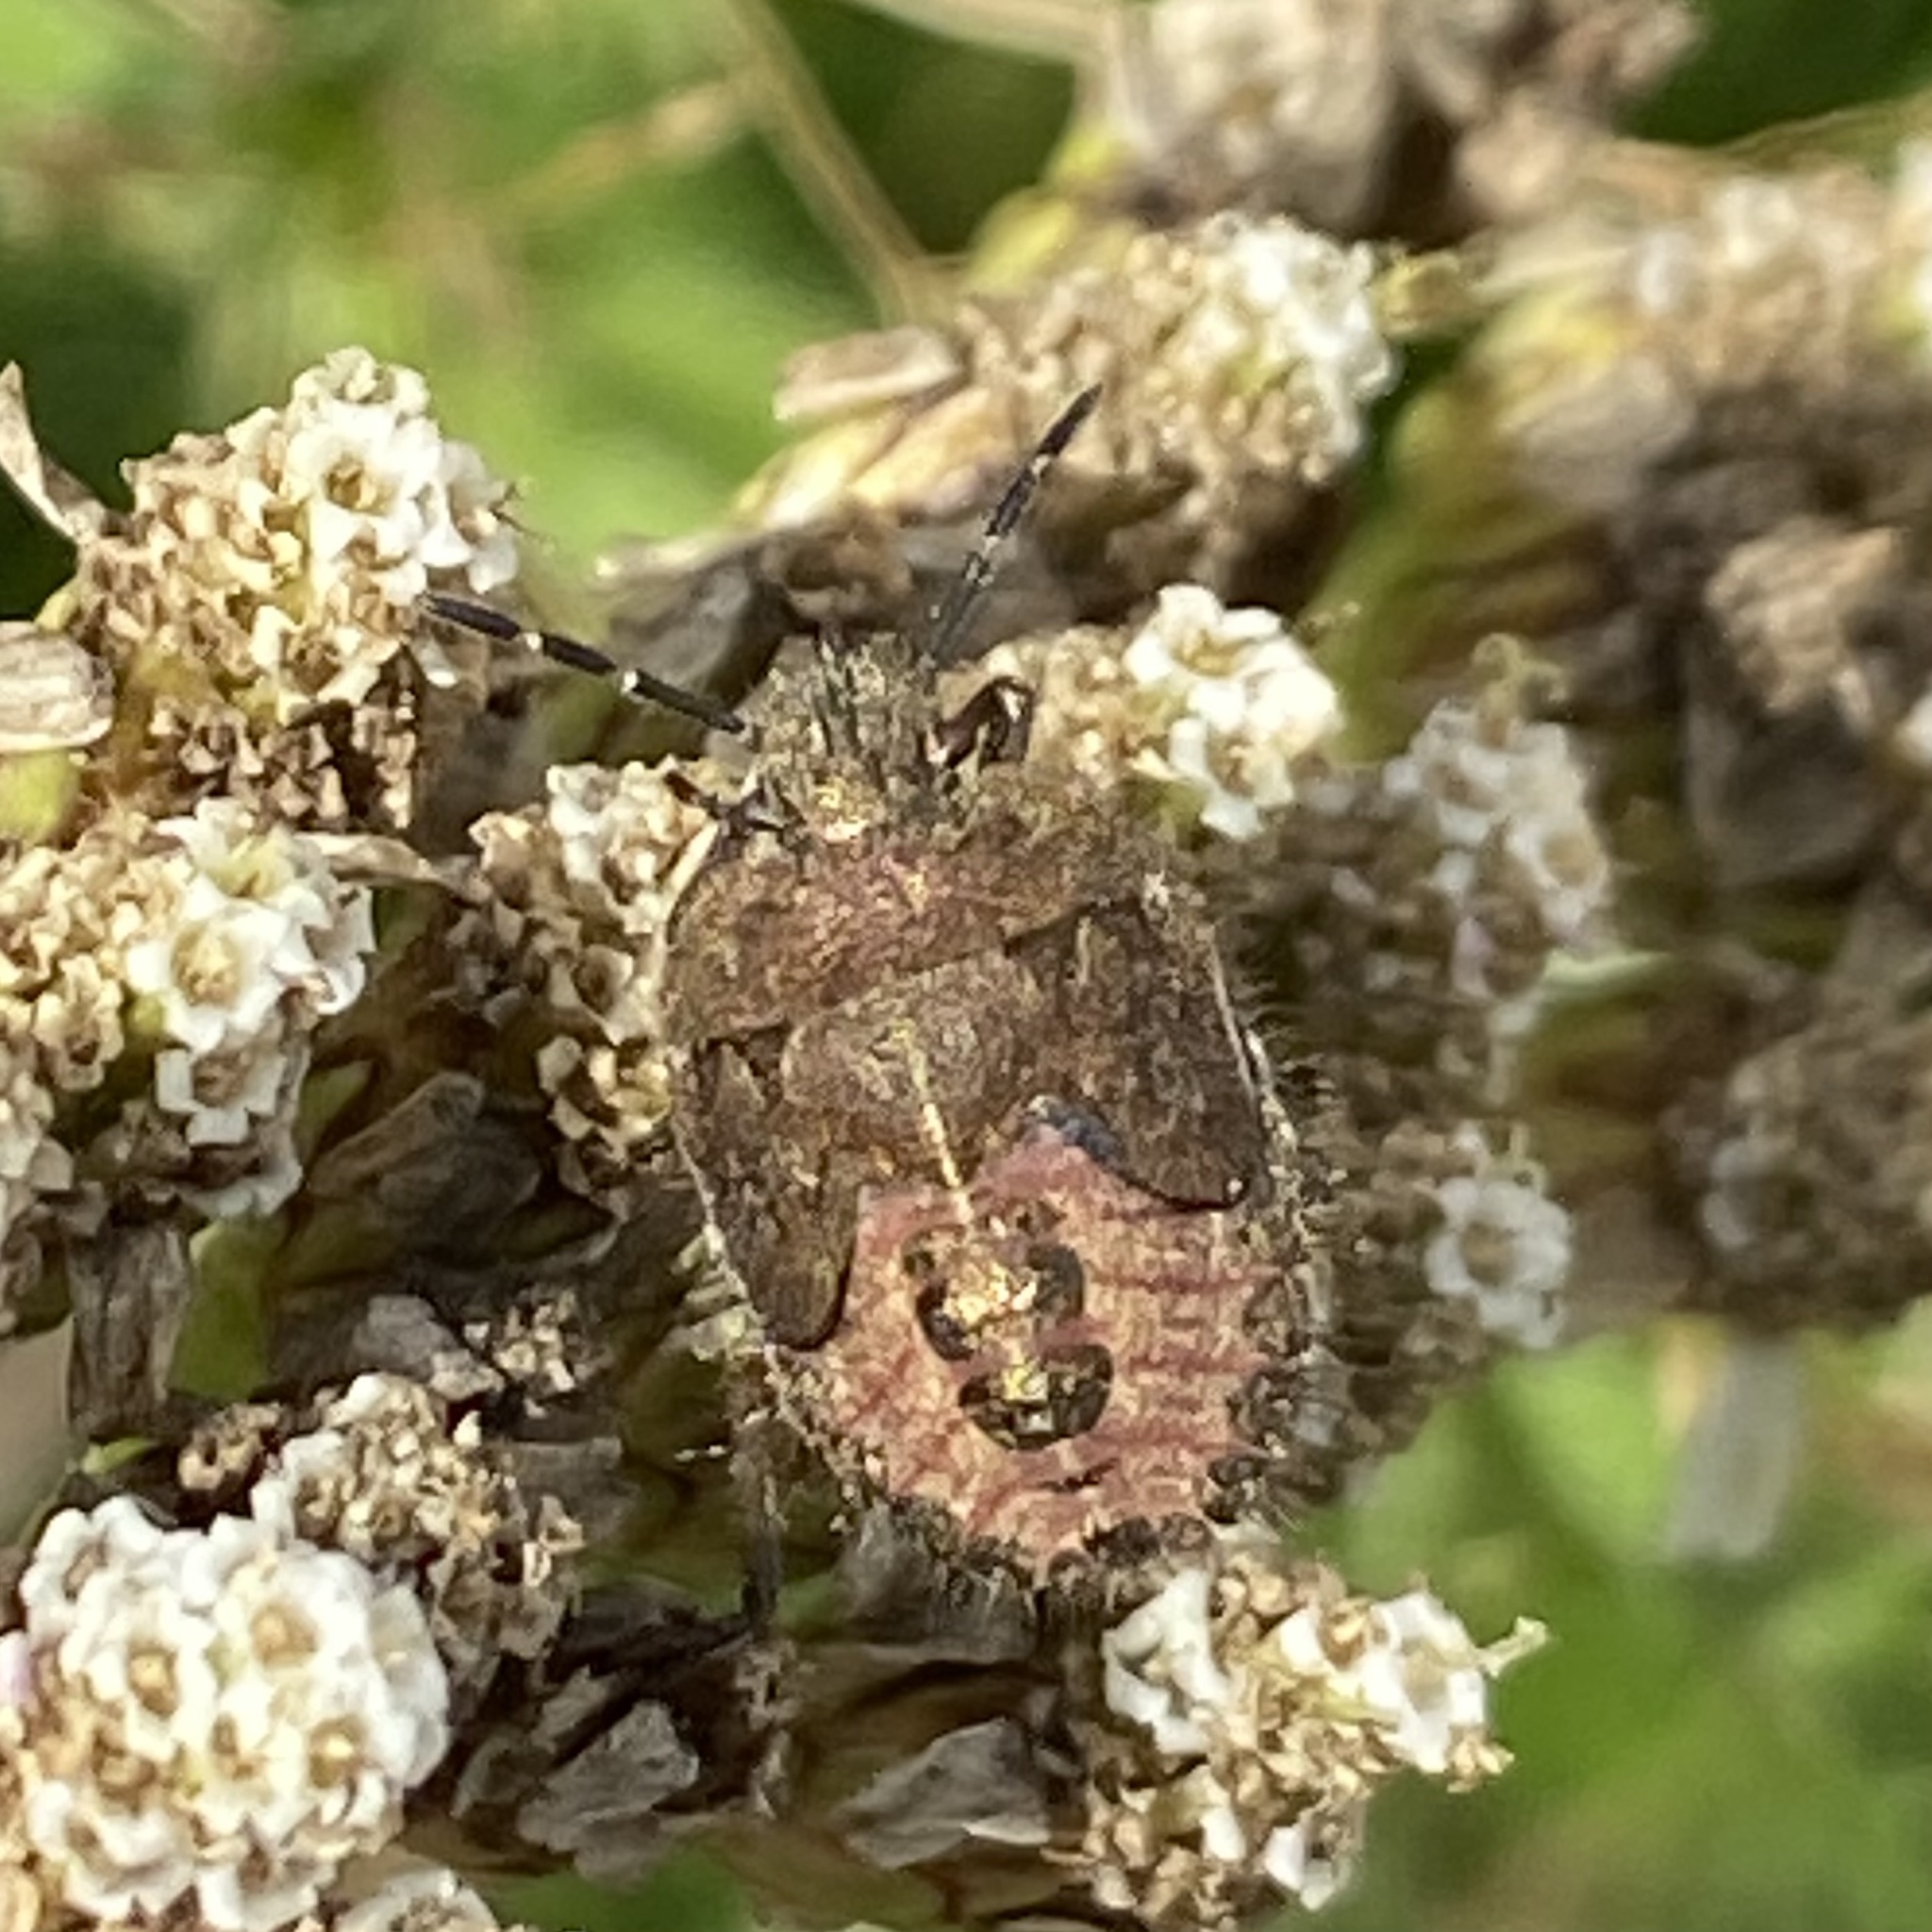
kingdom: Animalia
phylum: Arthropoda
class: Insecta
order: Hemiptera
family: Pentatomidae
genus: Dolycoris
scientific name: Dolycoris baccarum
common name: Sloe bug
